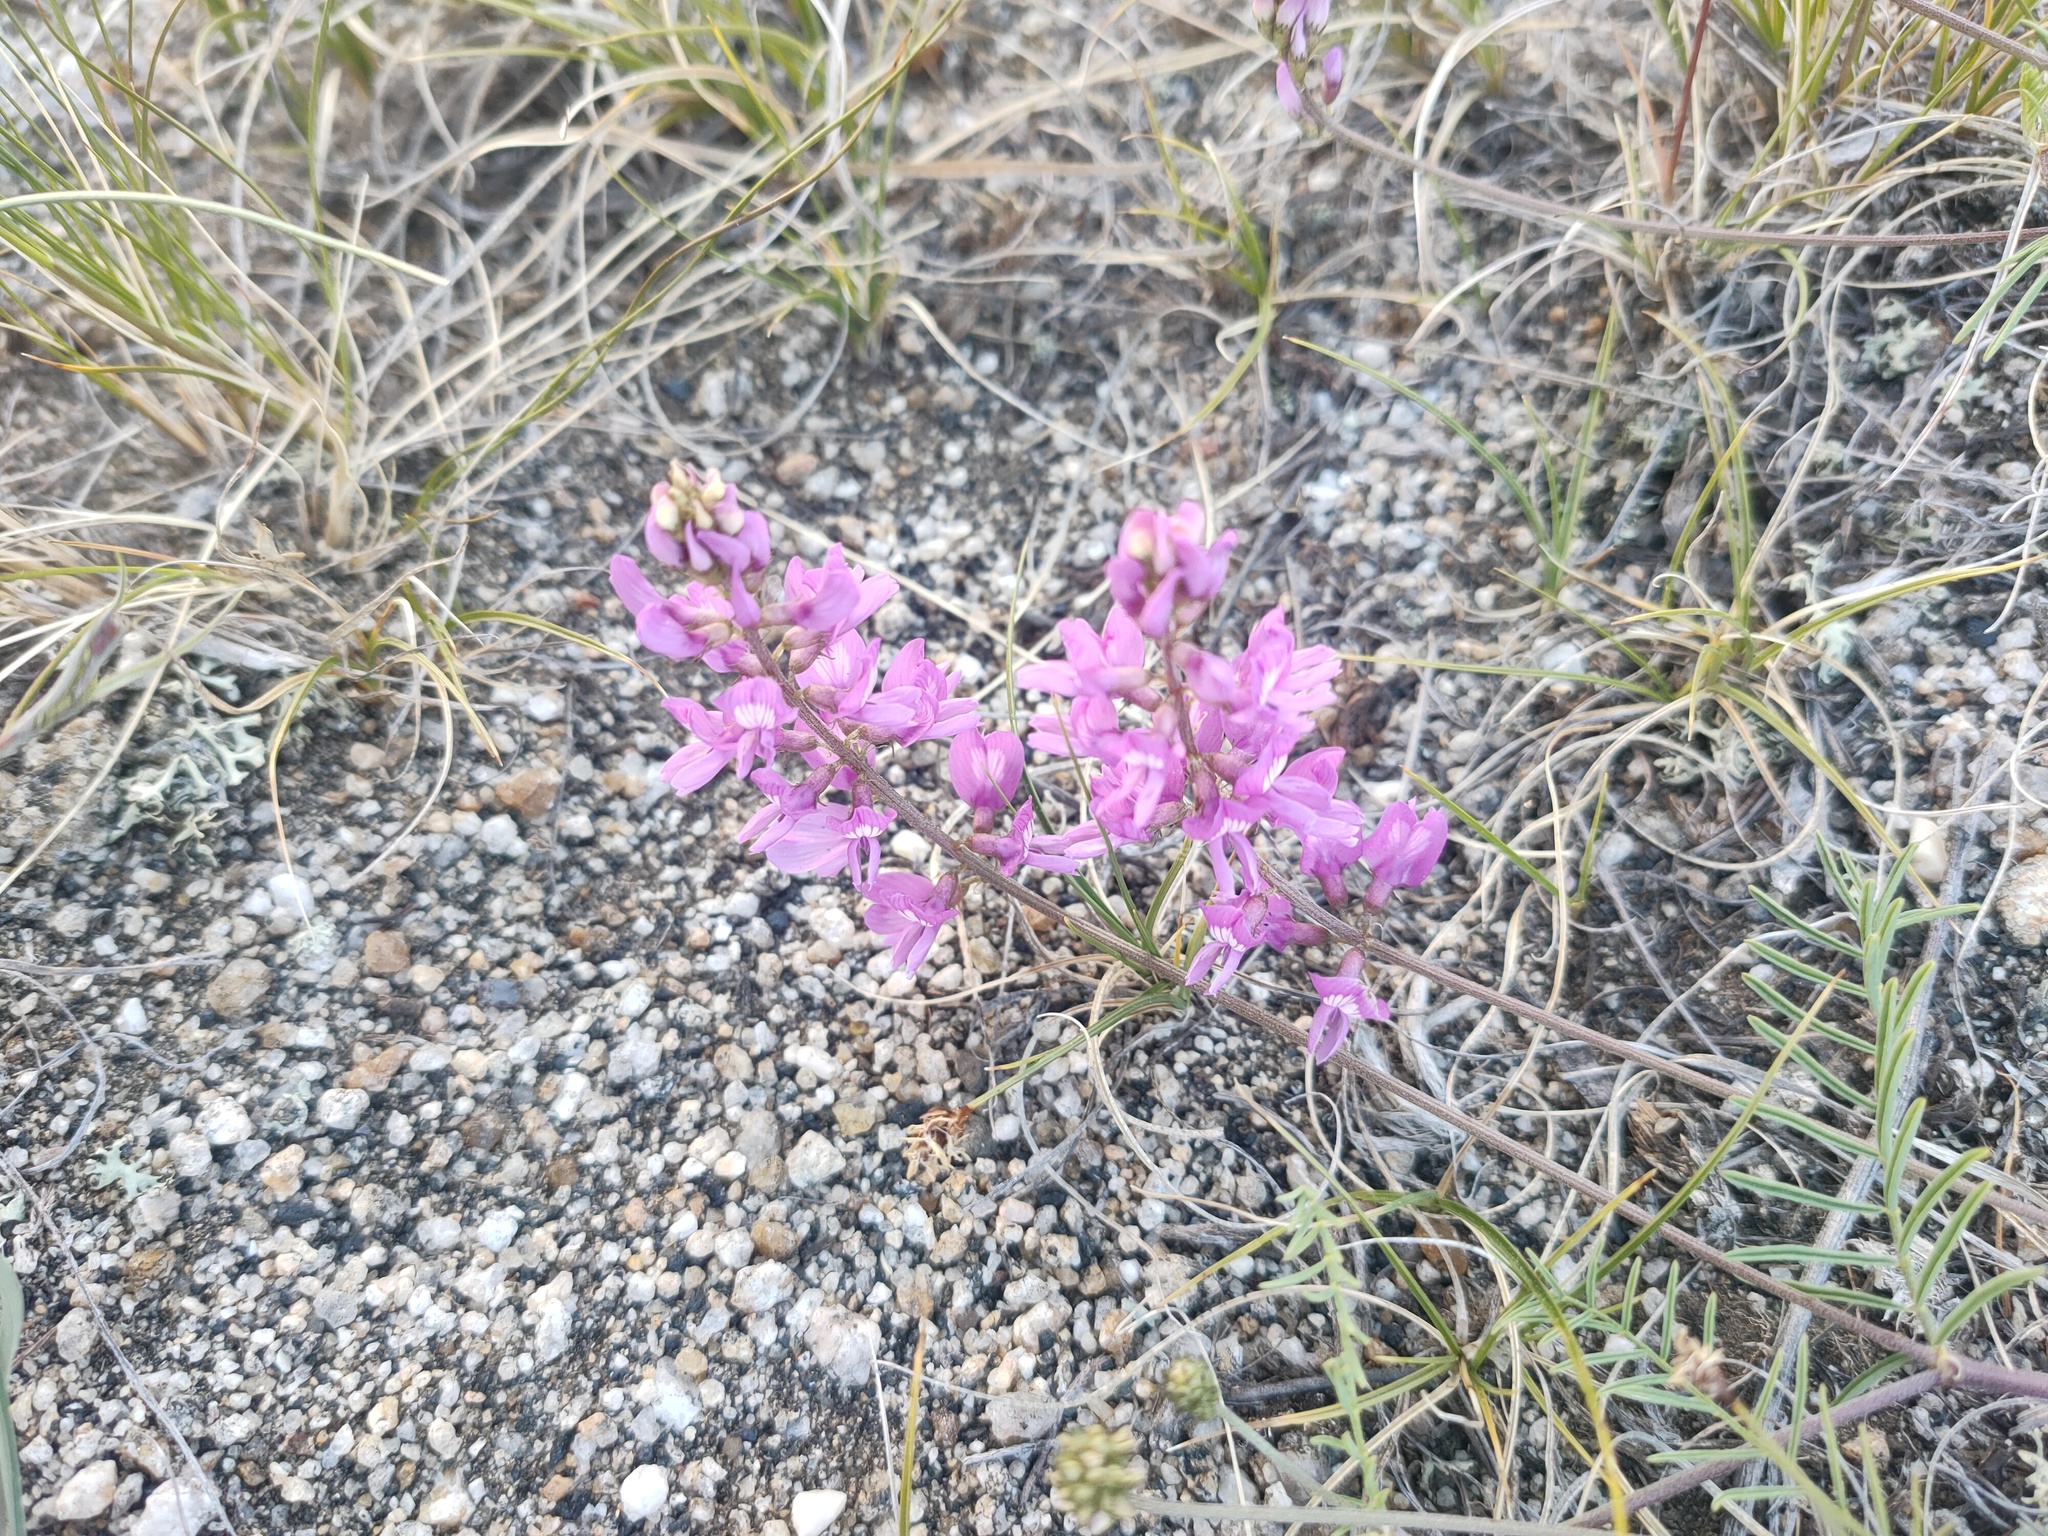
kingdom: Plantae
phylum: Tracheophyta
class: Magnoliopsida
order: Fabales
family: Fabaceae
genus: Astragalus
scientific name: Astragalus versicolor
